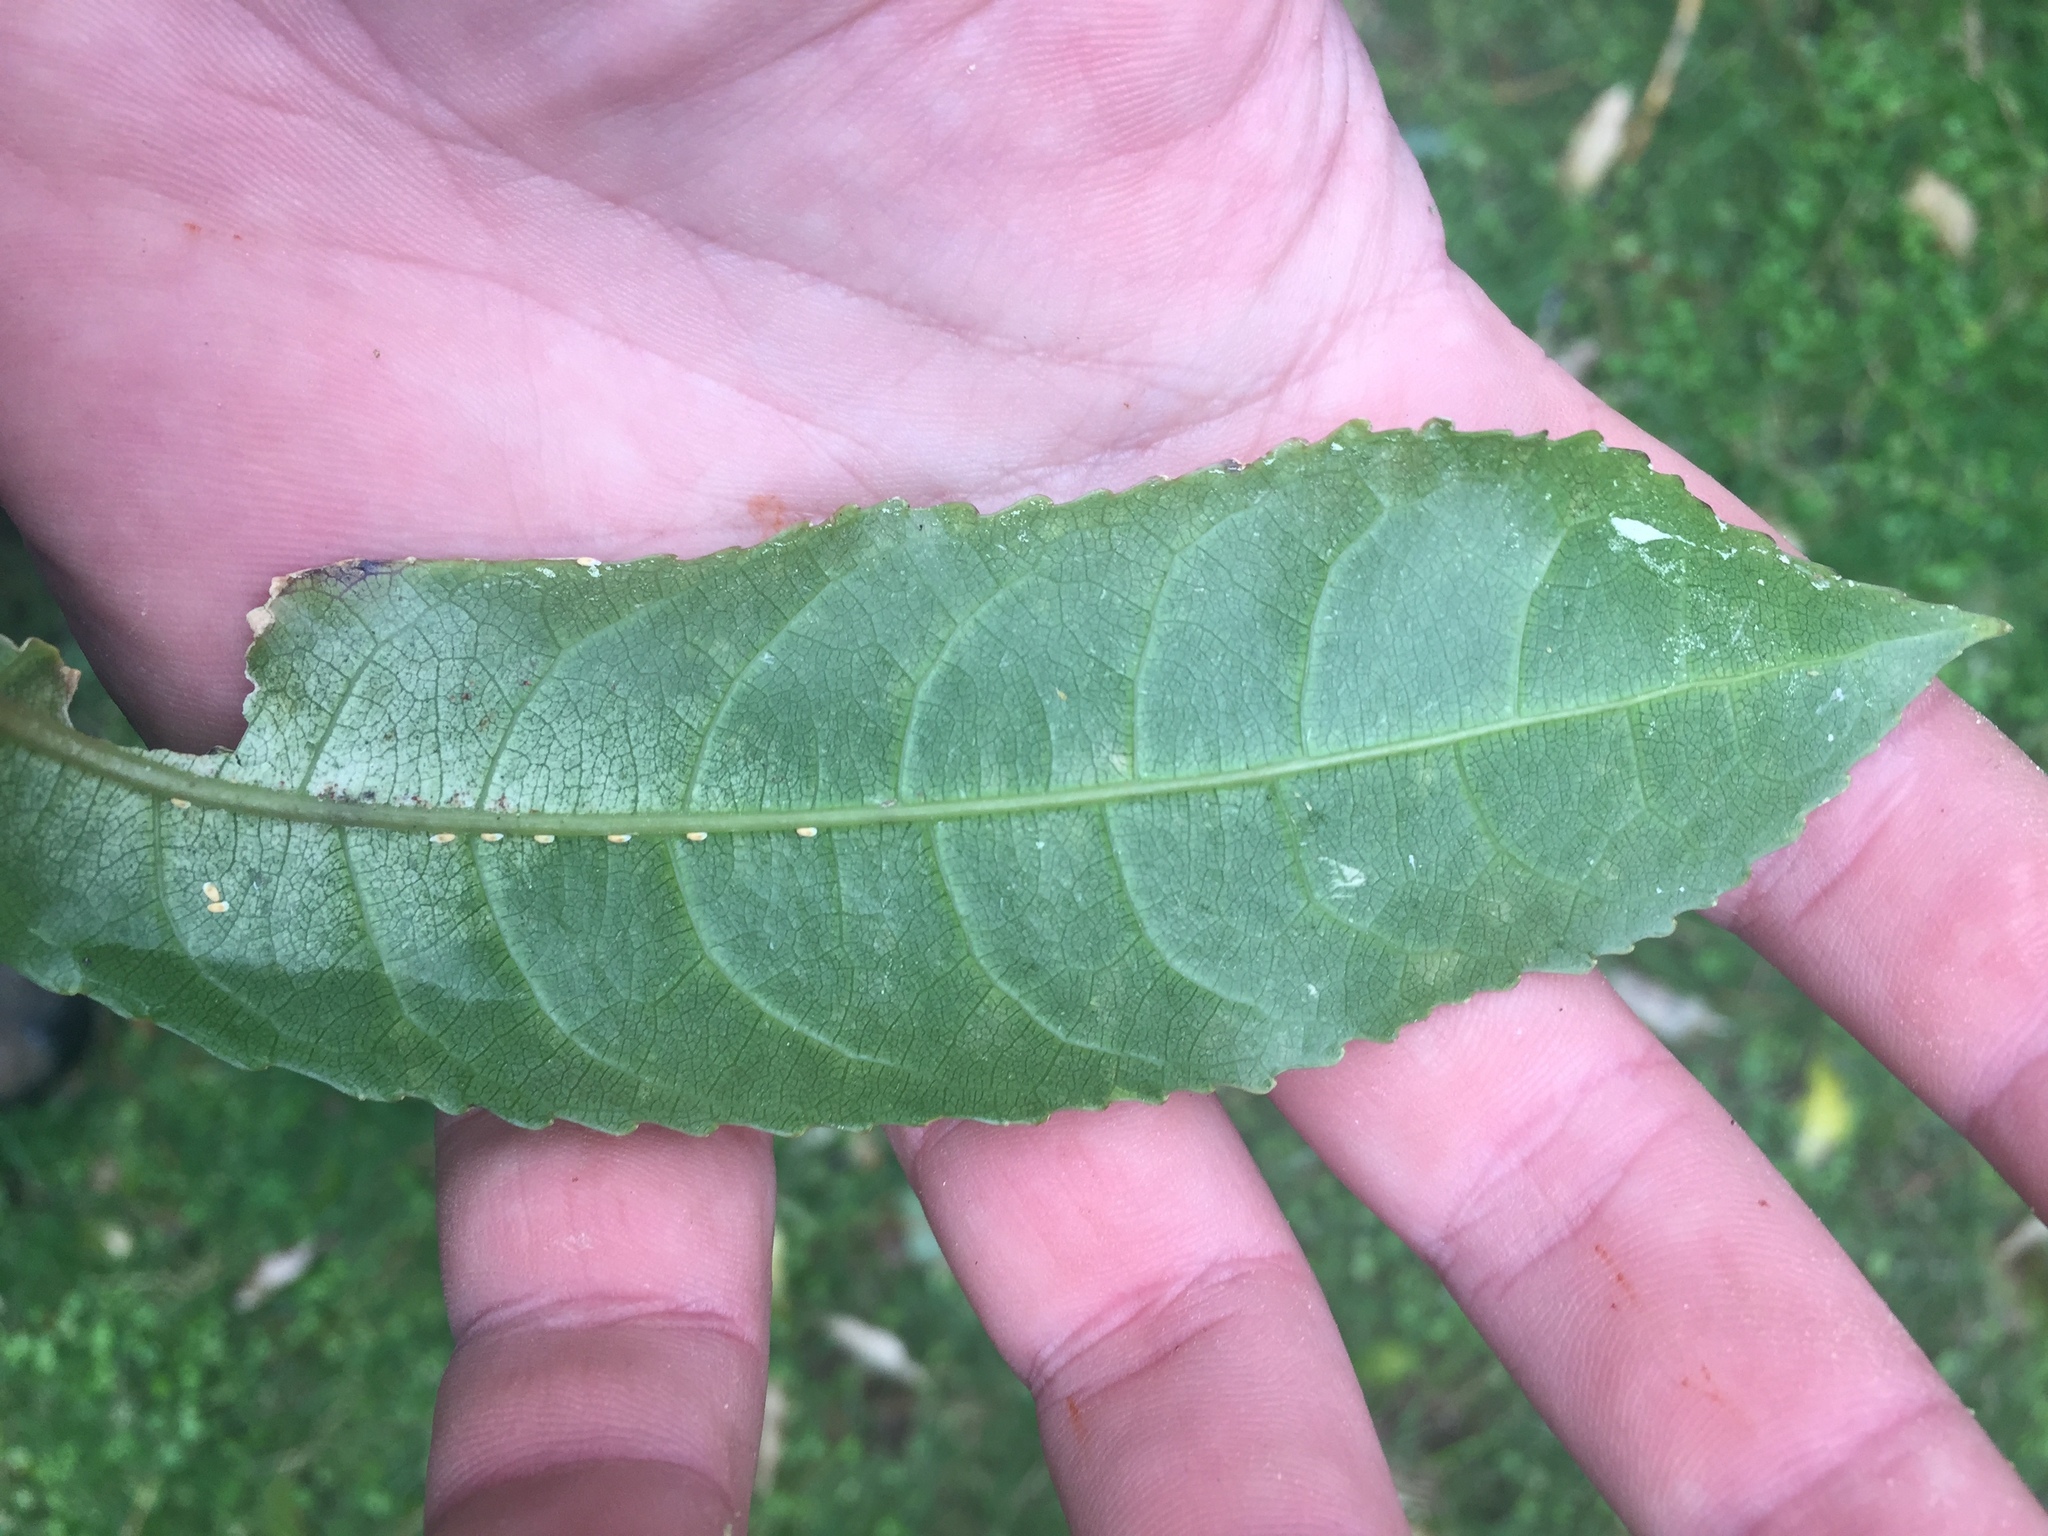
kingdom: Plantae
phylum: Tracheophyta
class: Magnoliopsida
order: Malpighiales
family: Violaceae
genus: Melicytus
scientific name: Melicytus ramiflorus
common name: Mahoe
